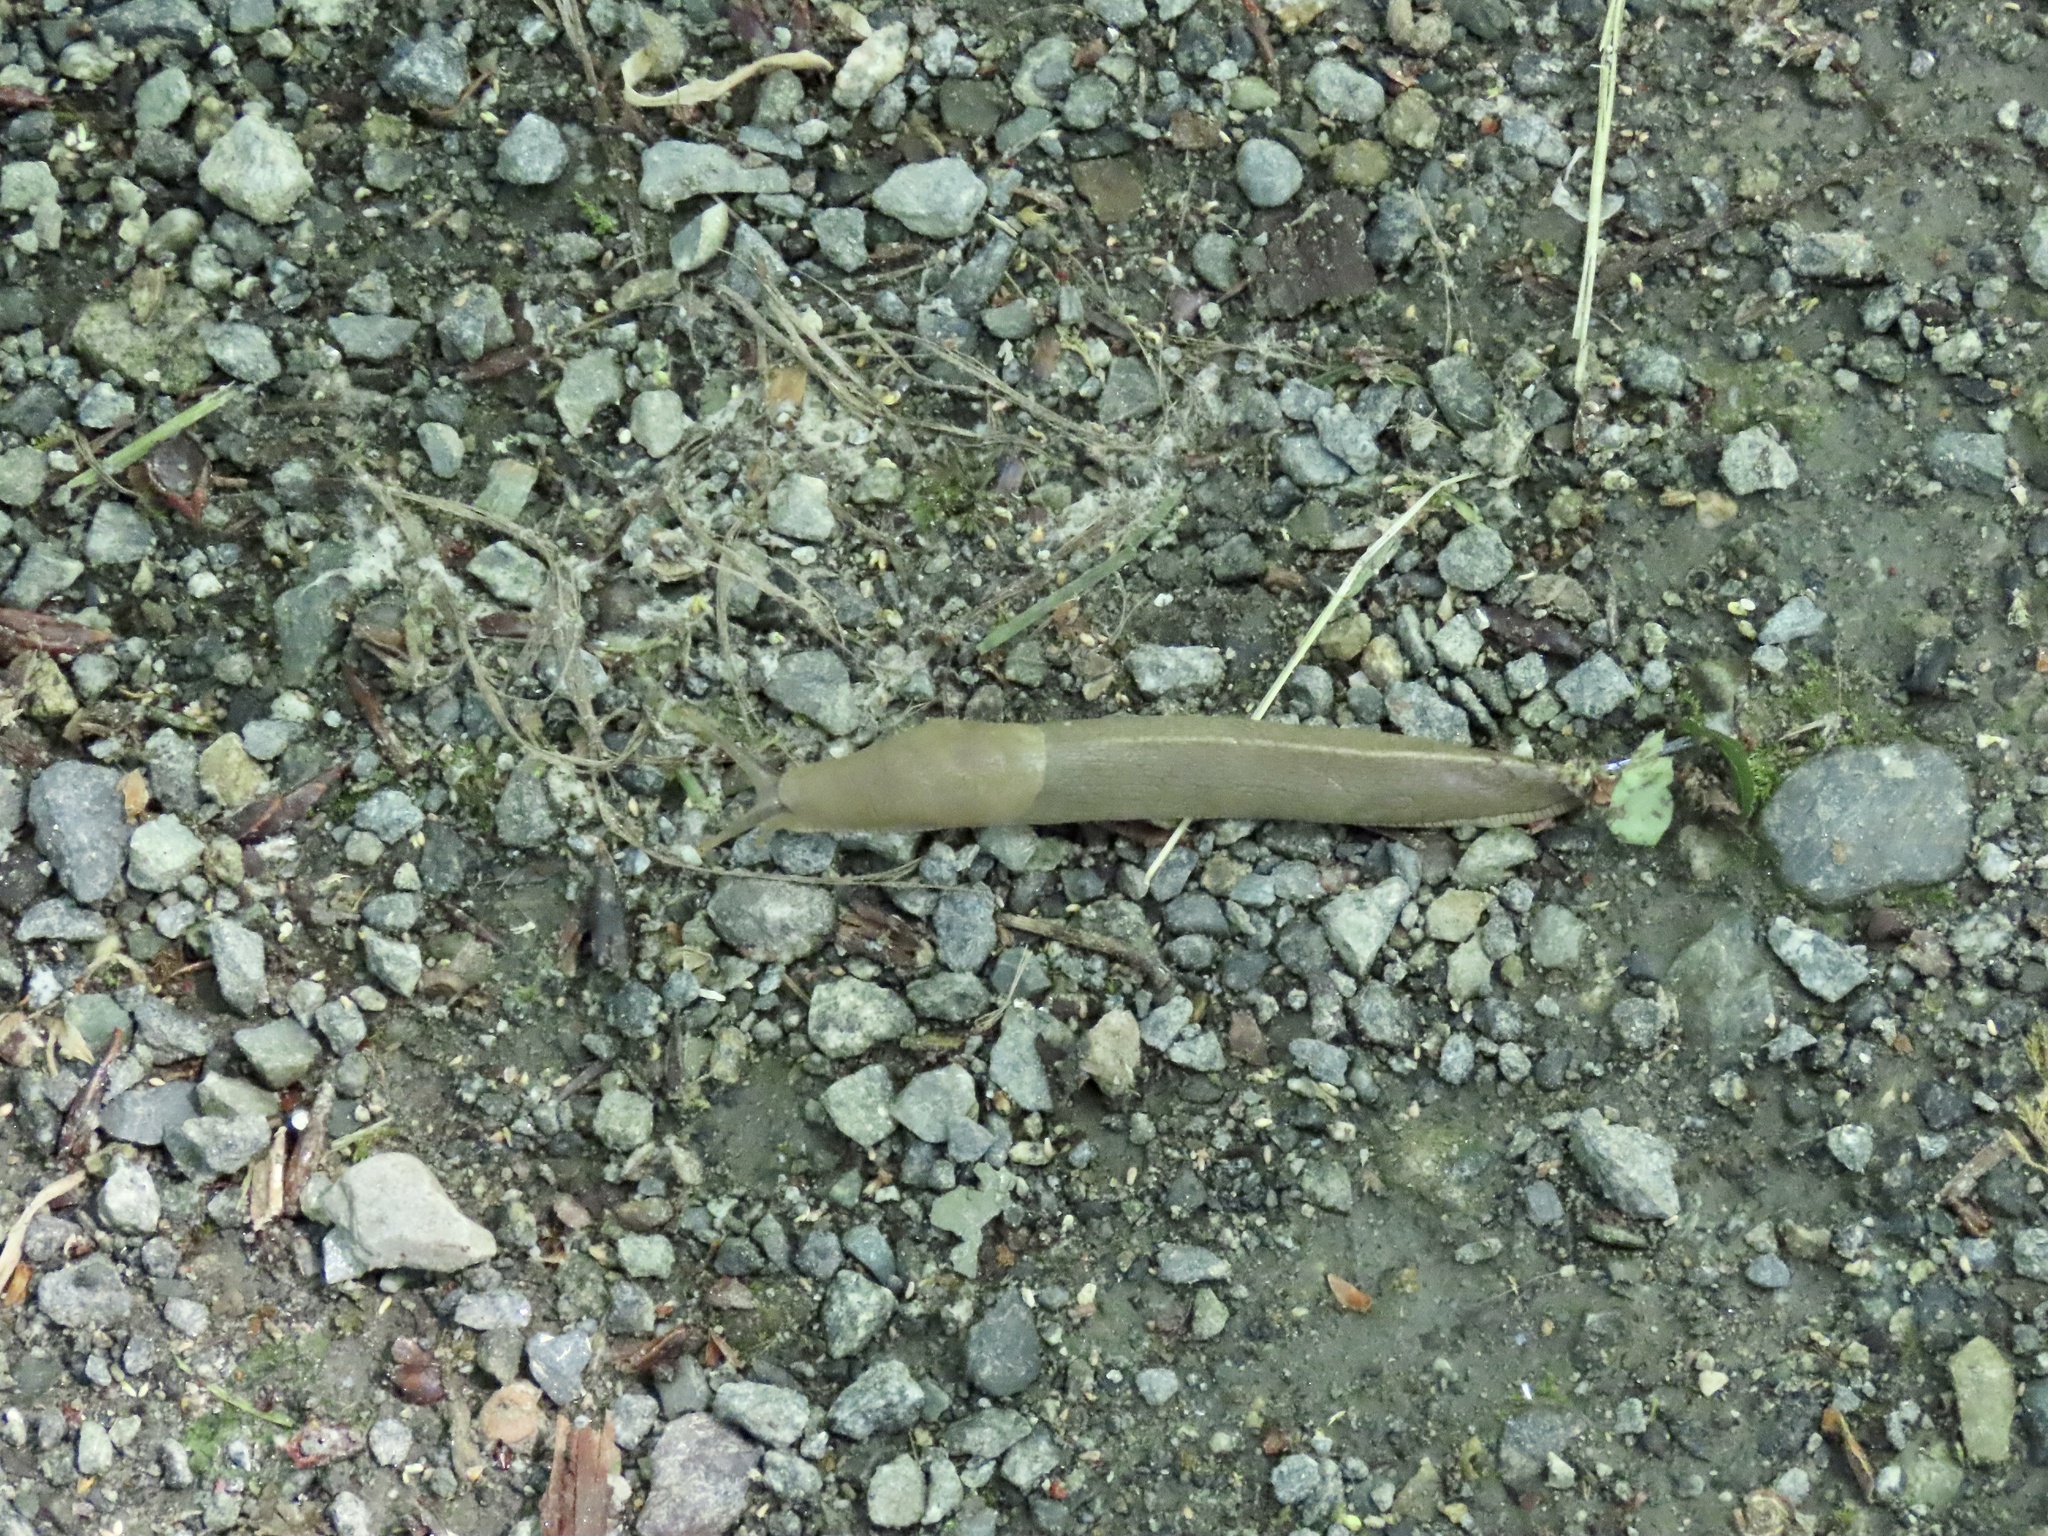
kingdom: Animalia
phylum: Mollusca
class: Gastropoda
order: Stylommatophora
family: Ariolimacidae
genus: Ariolimax
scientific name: Ariolimax columbianus
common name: Pacific banana slug
